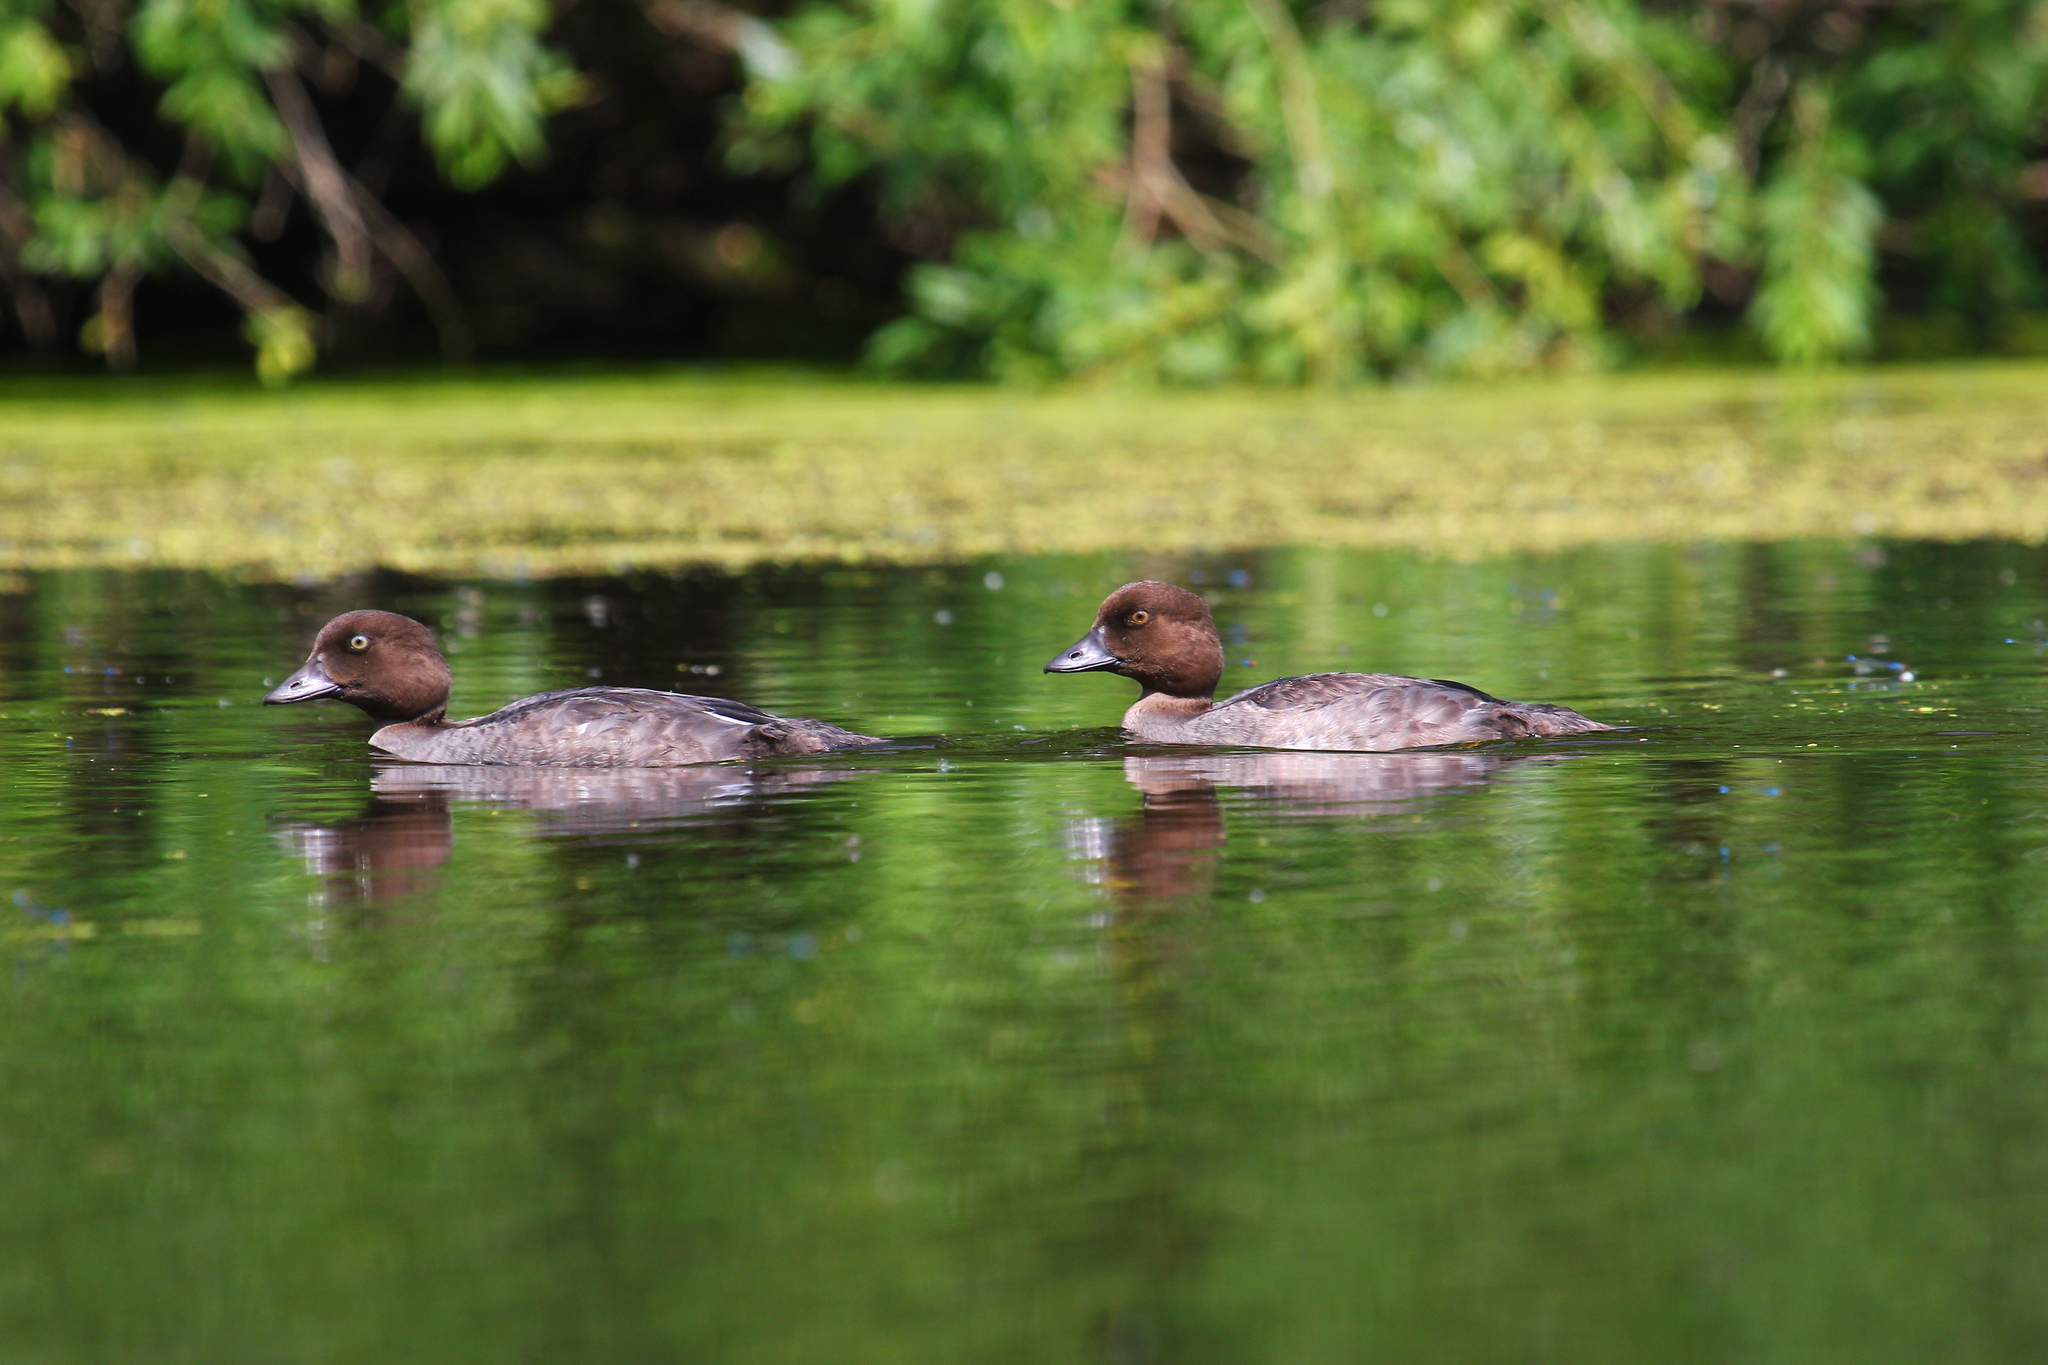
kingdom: Animalia
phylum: Chordata
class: Aves
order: Anseriformes
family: Anatidae
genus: Bucephala
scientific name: Bucephala clangula
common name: Common goldeneye
